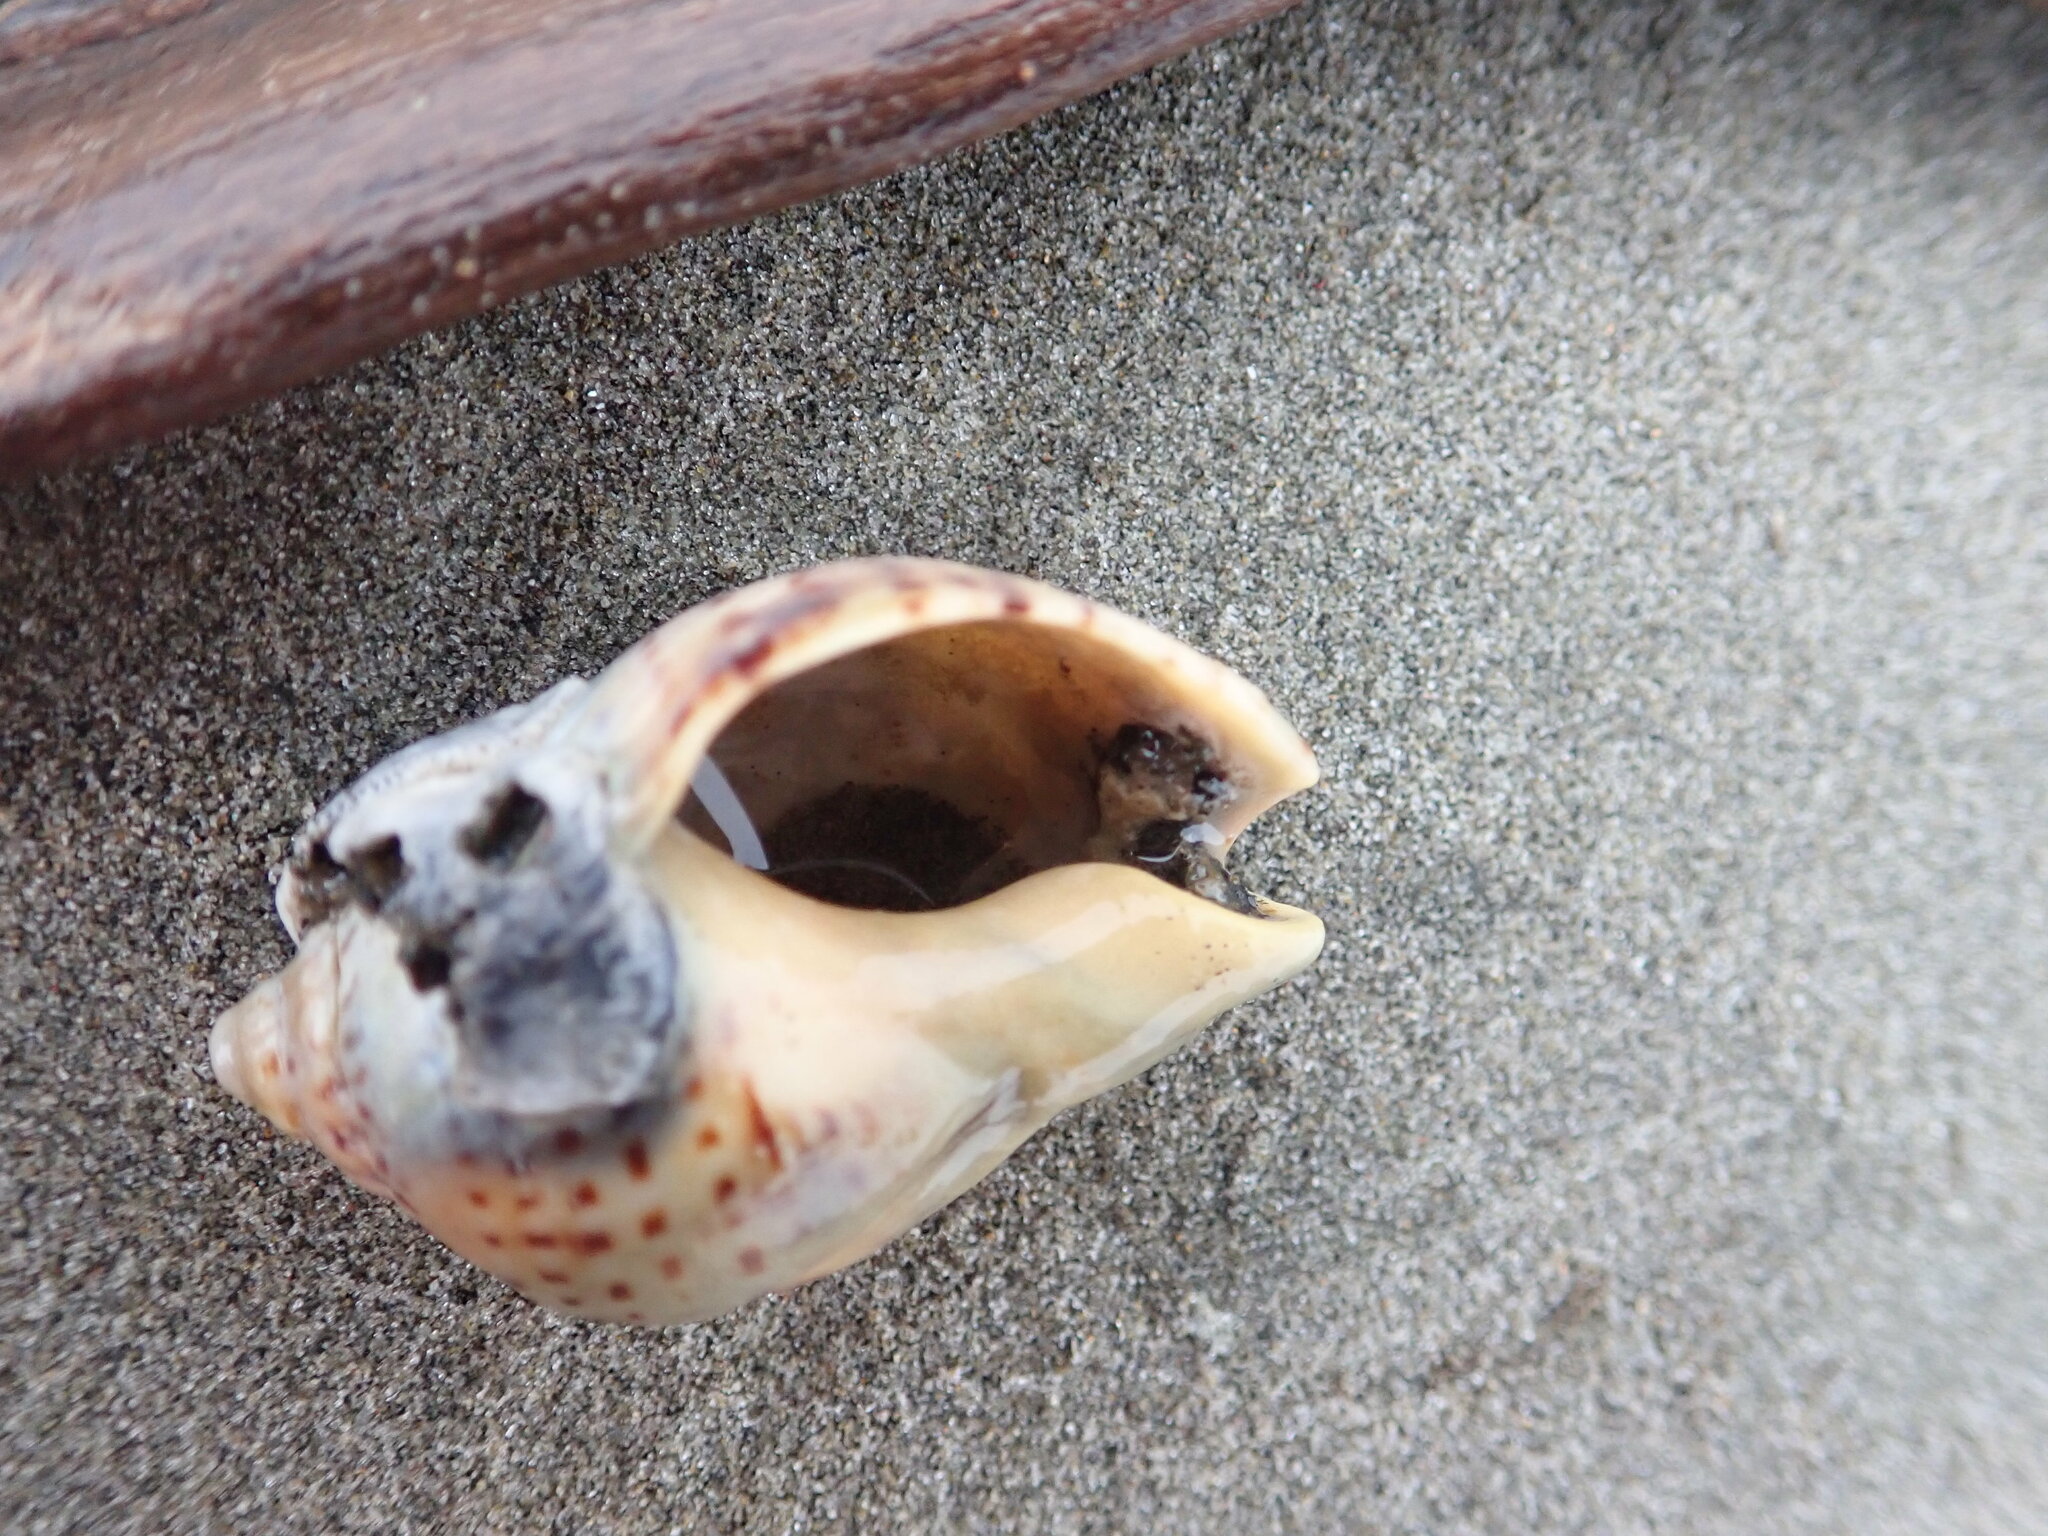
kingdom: Animalia
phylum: Mollusca
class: Gastropoda
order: Neogastropoda
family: Cominellidae
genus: Cominella
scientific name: Cominella adspersa
